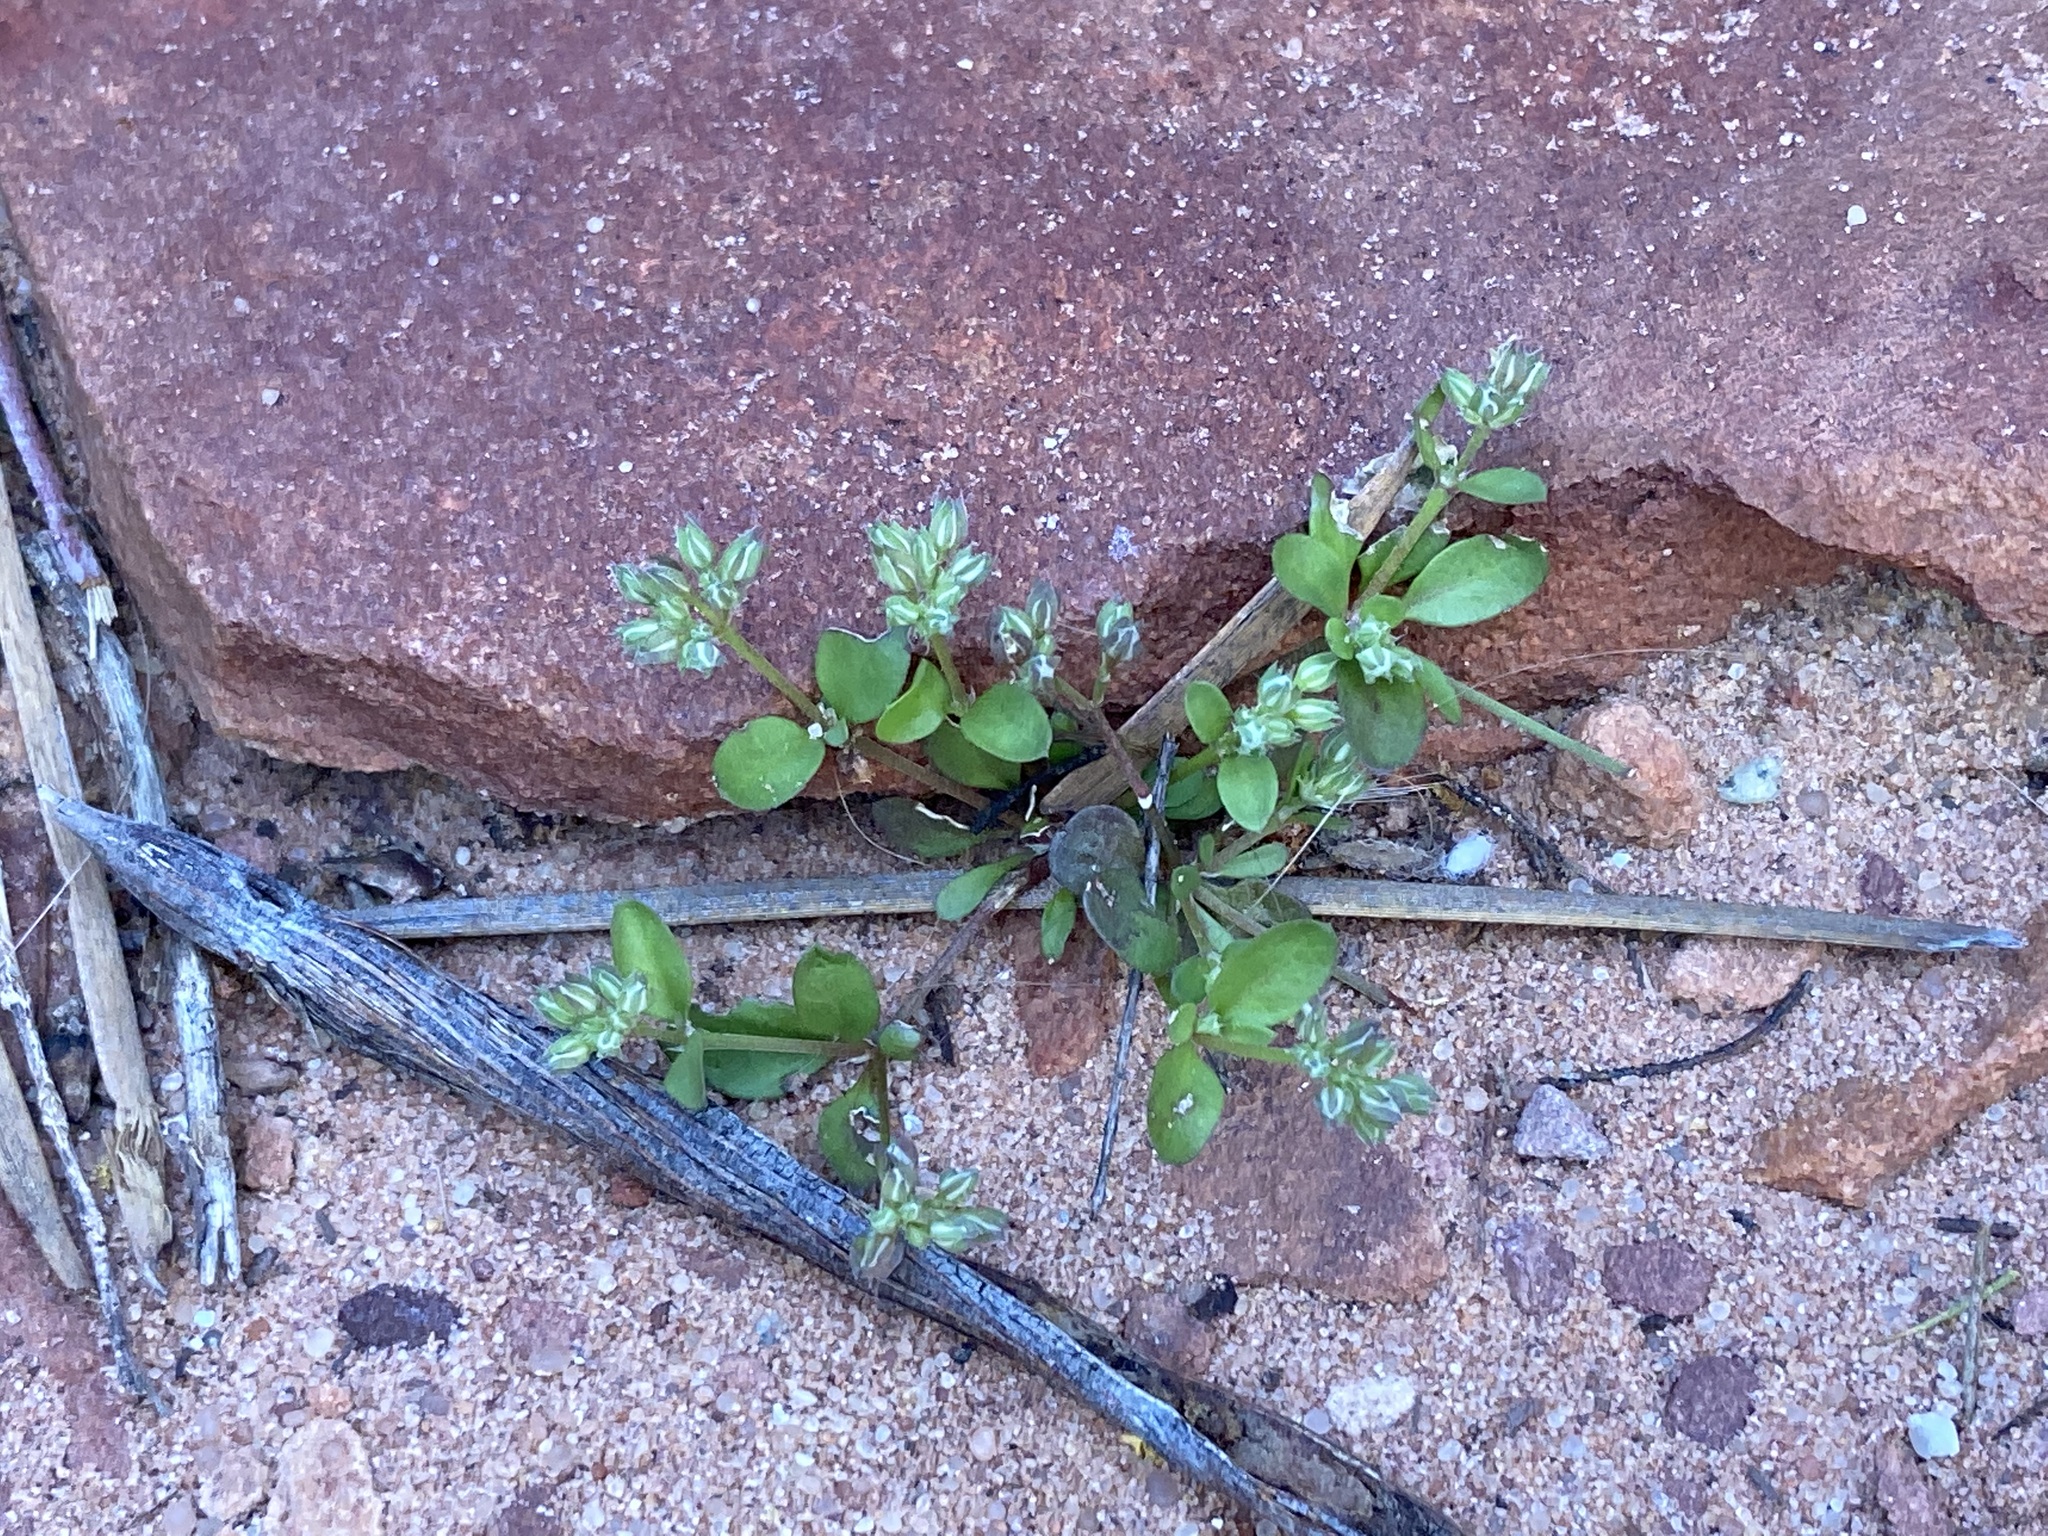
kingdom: Plantae
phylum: Tracheophyta
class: Magnoliopsida
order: Caryophyllales
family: Caryophyllaceae
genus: Polycarpon
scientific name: Polycarpon tetraphyllum
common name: Four-leaved all-seed
